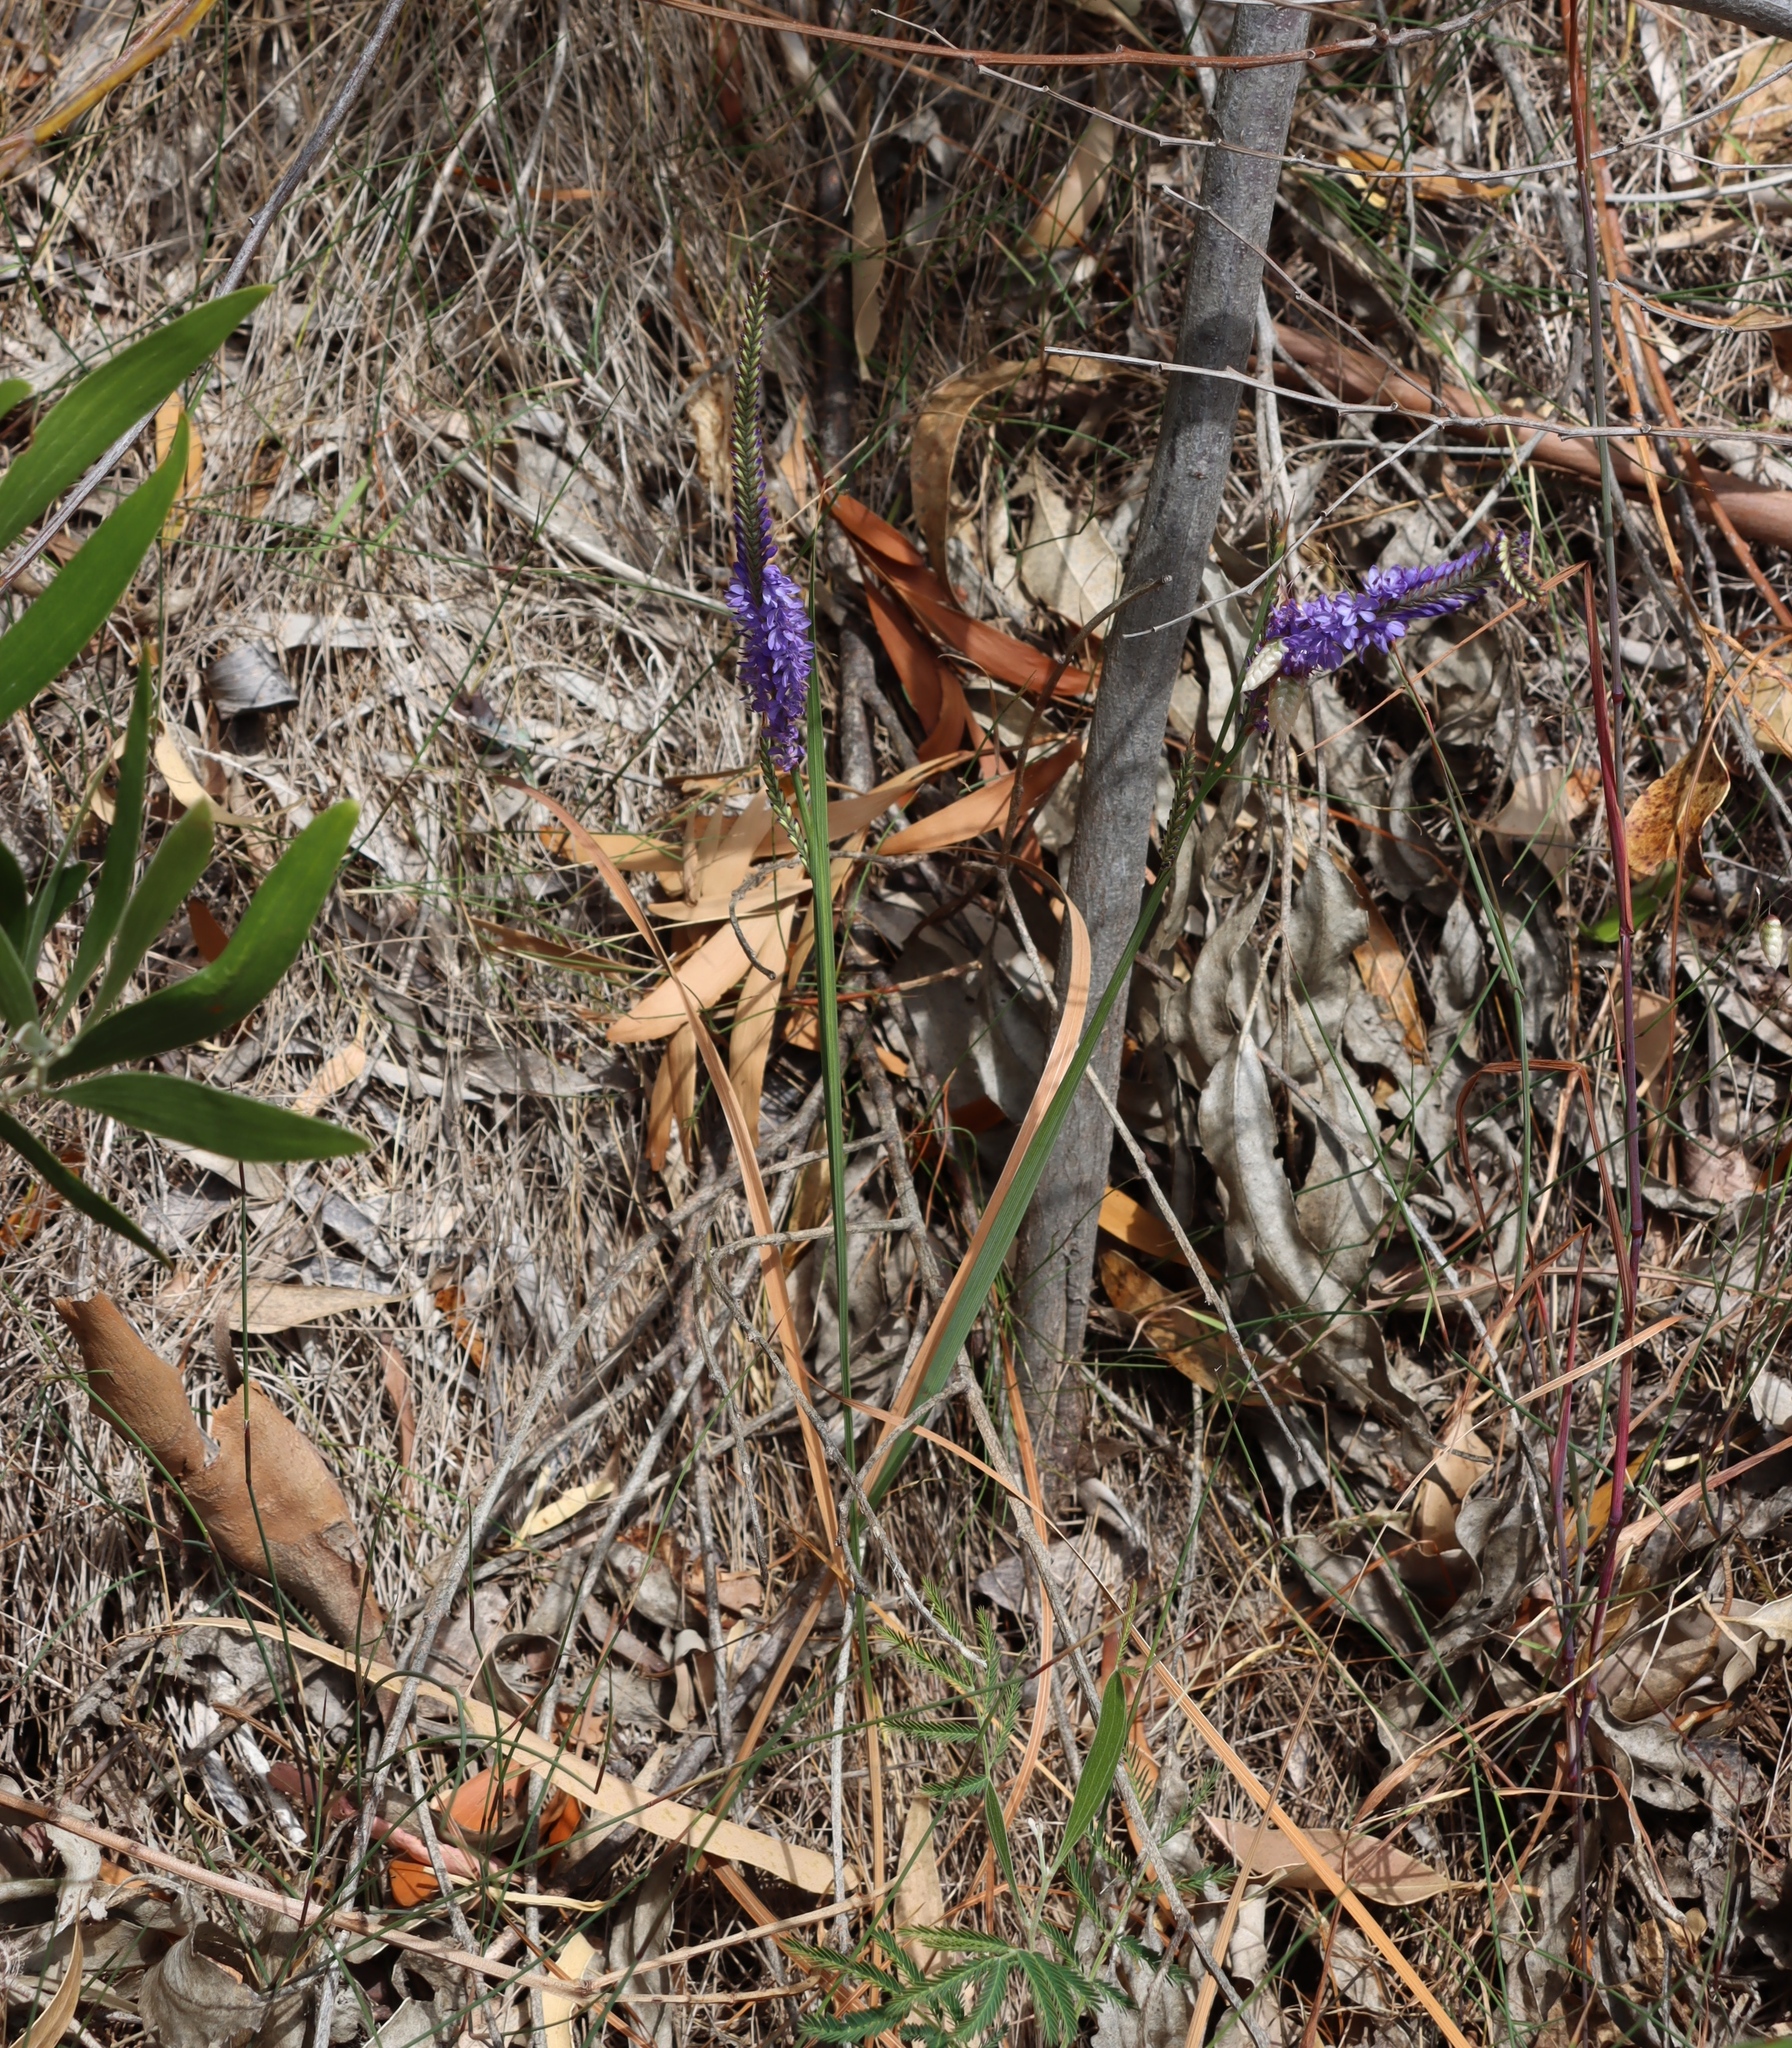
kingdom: Plantae
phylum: Tracheophyta
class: Liliopsida
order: Asparagales
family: Iridaceae
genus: Micranthus
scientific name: Micranthus alopecuroides
